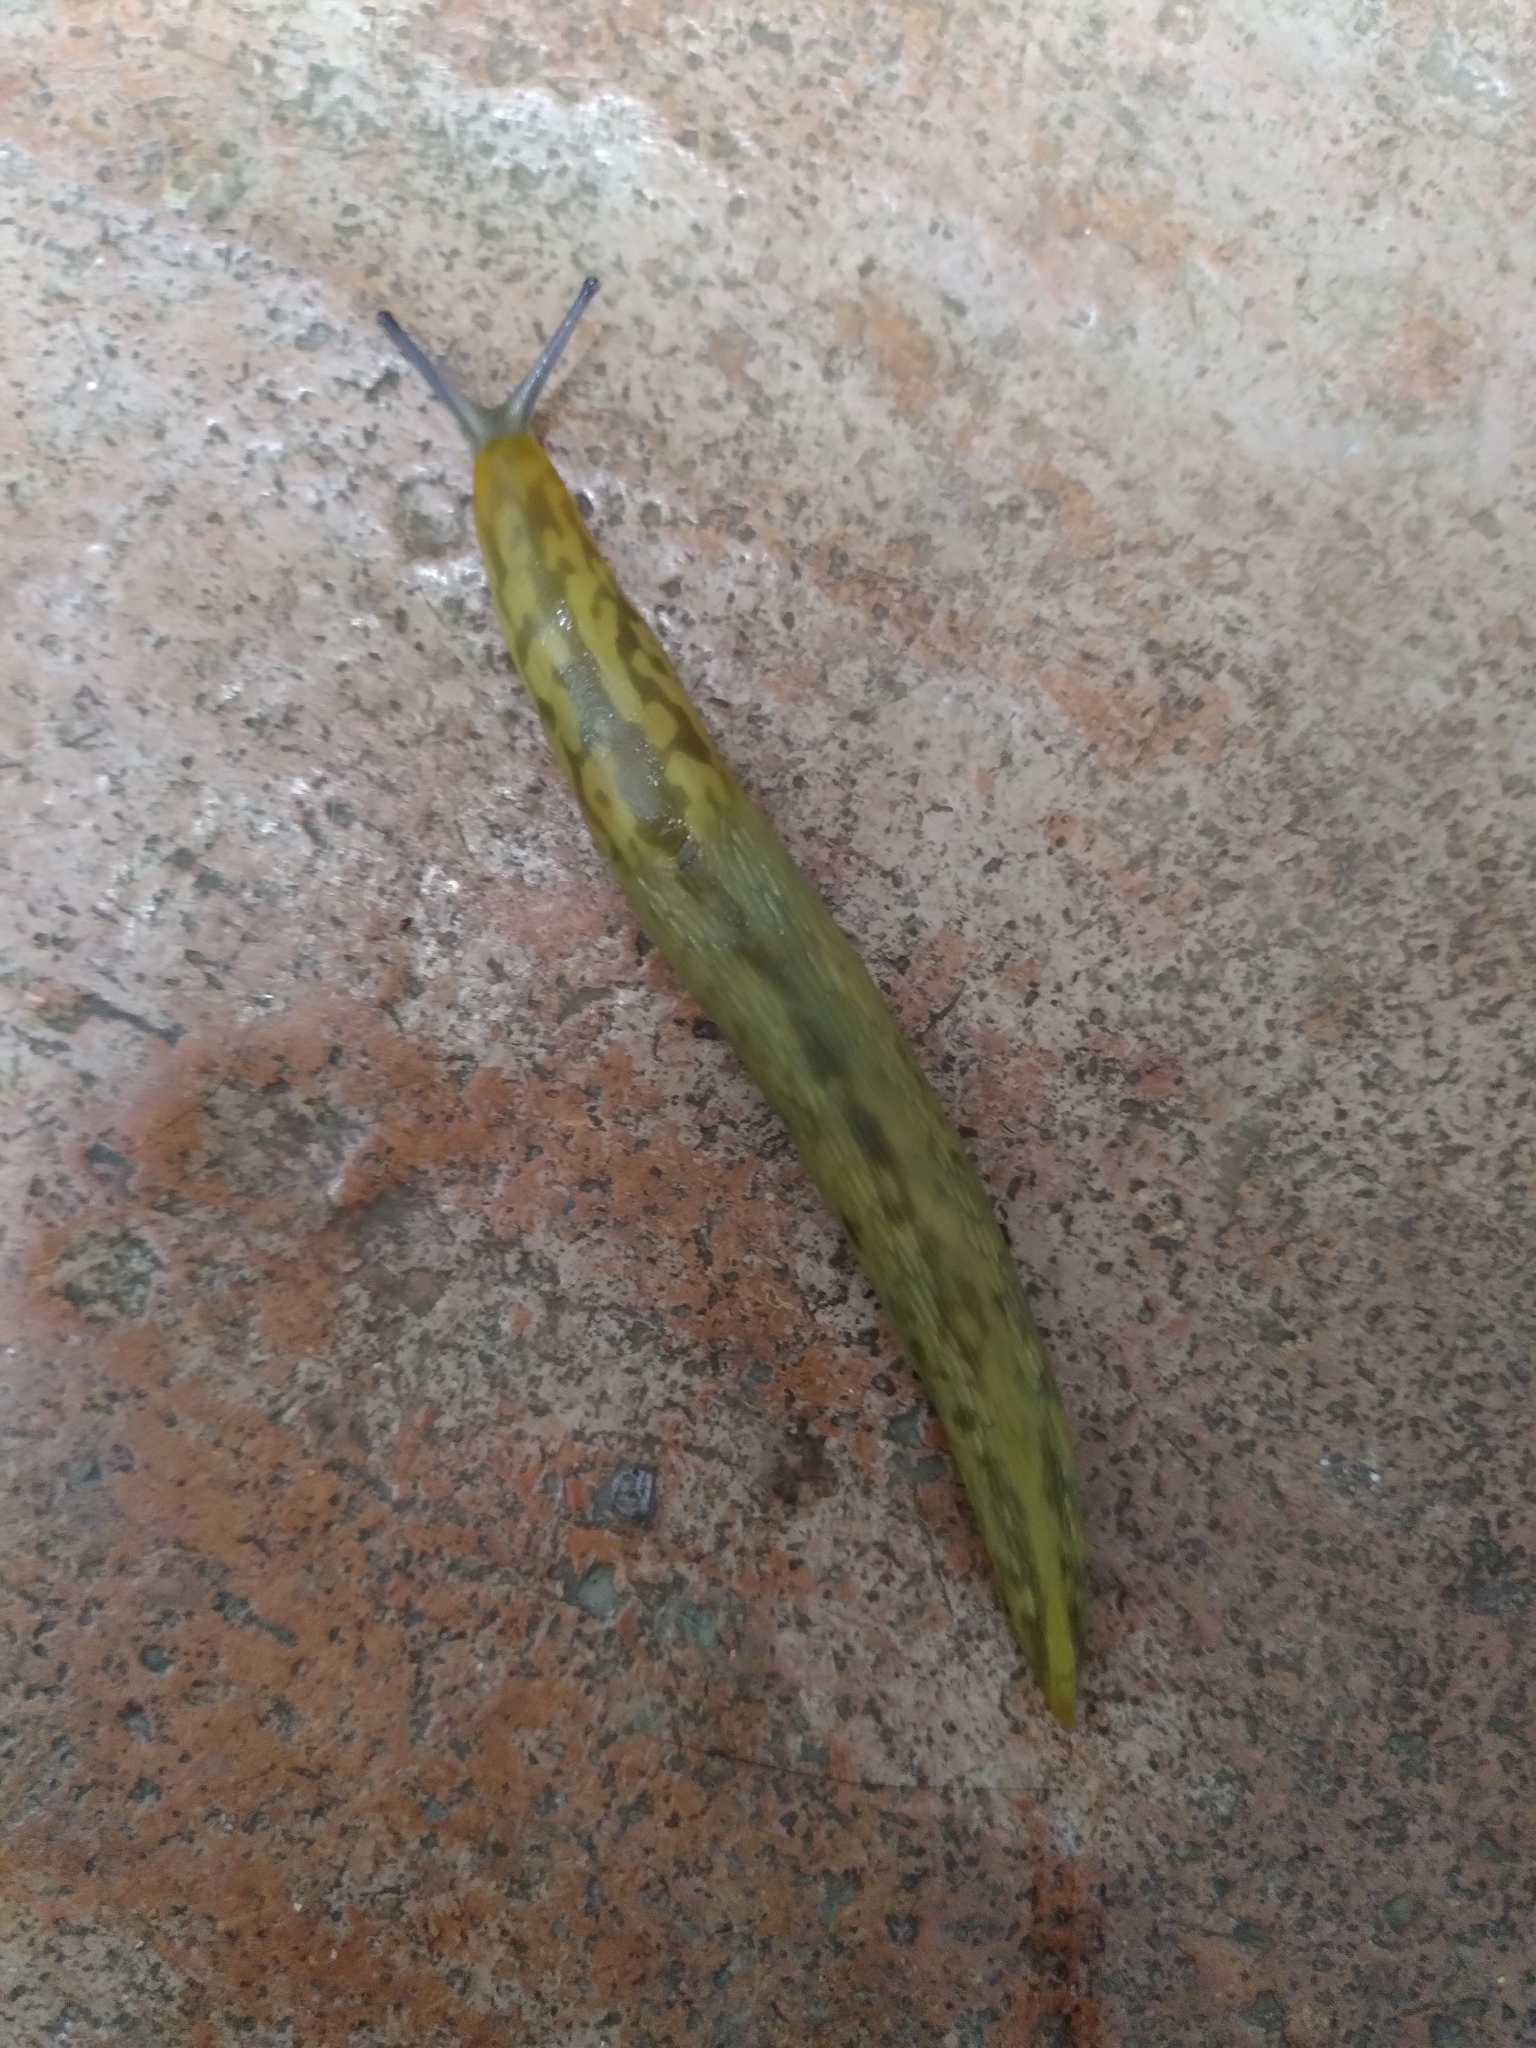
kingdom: Animalia
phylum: Mollusca
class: Gastropoda
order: Stylommatophora
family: Limacidae
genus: Limacus
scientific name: Limacus maculatus
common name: Irish yellow slug
